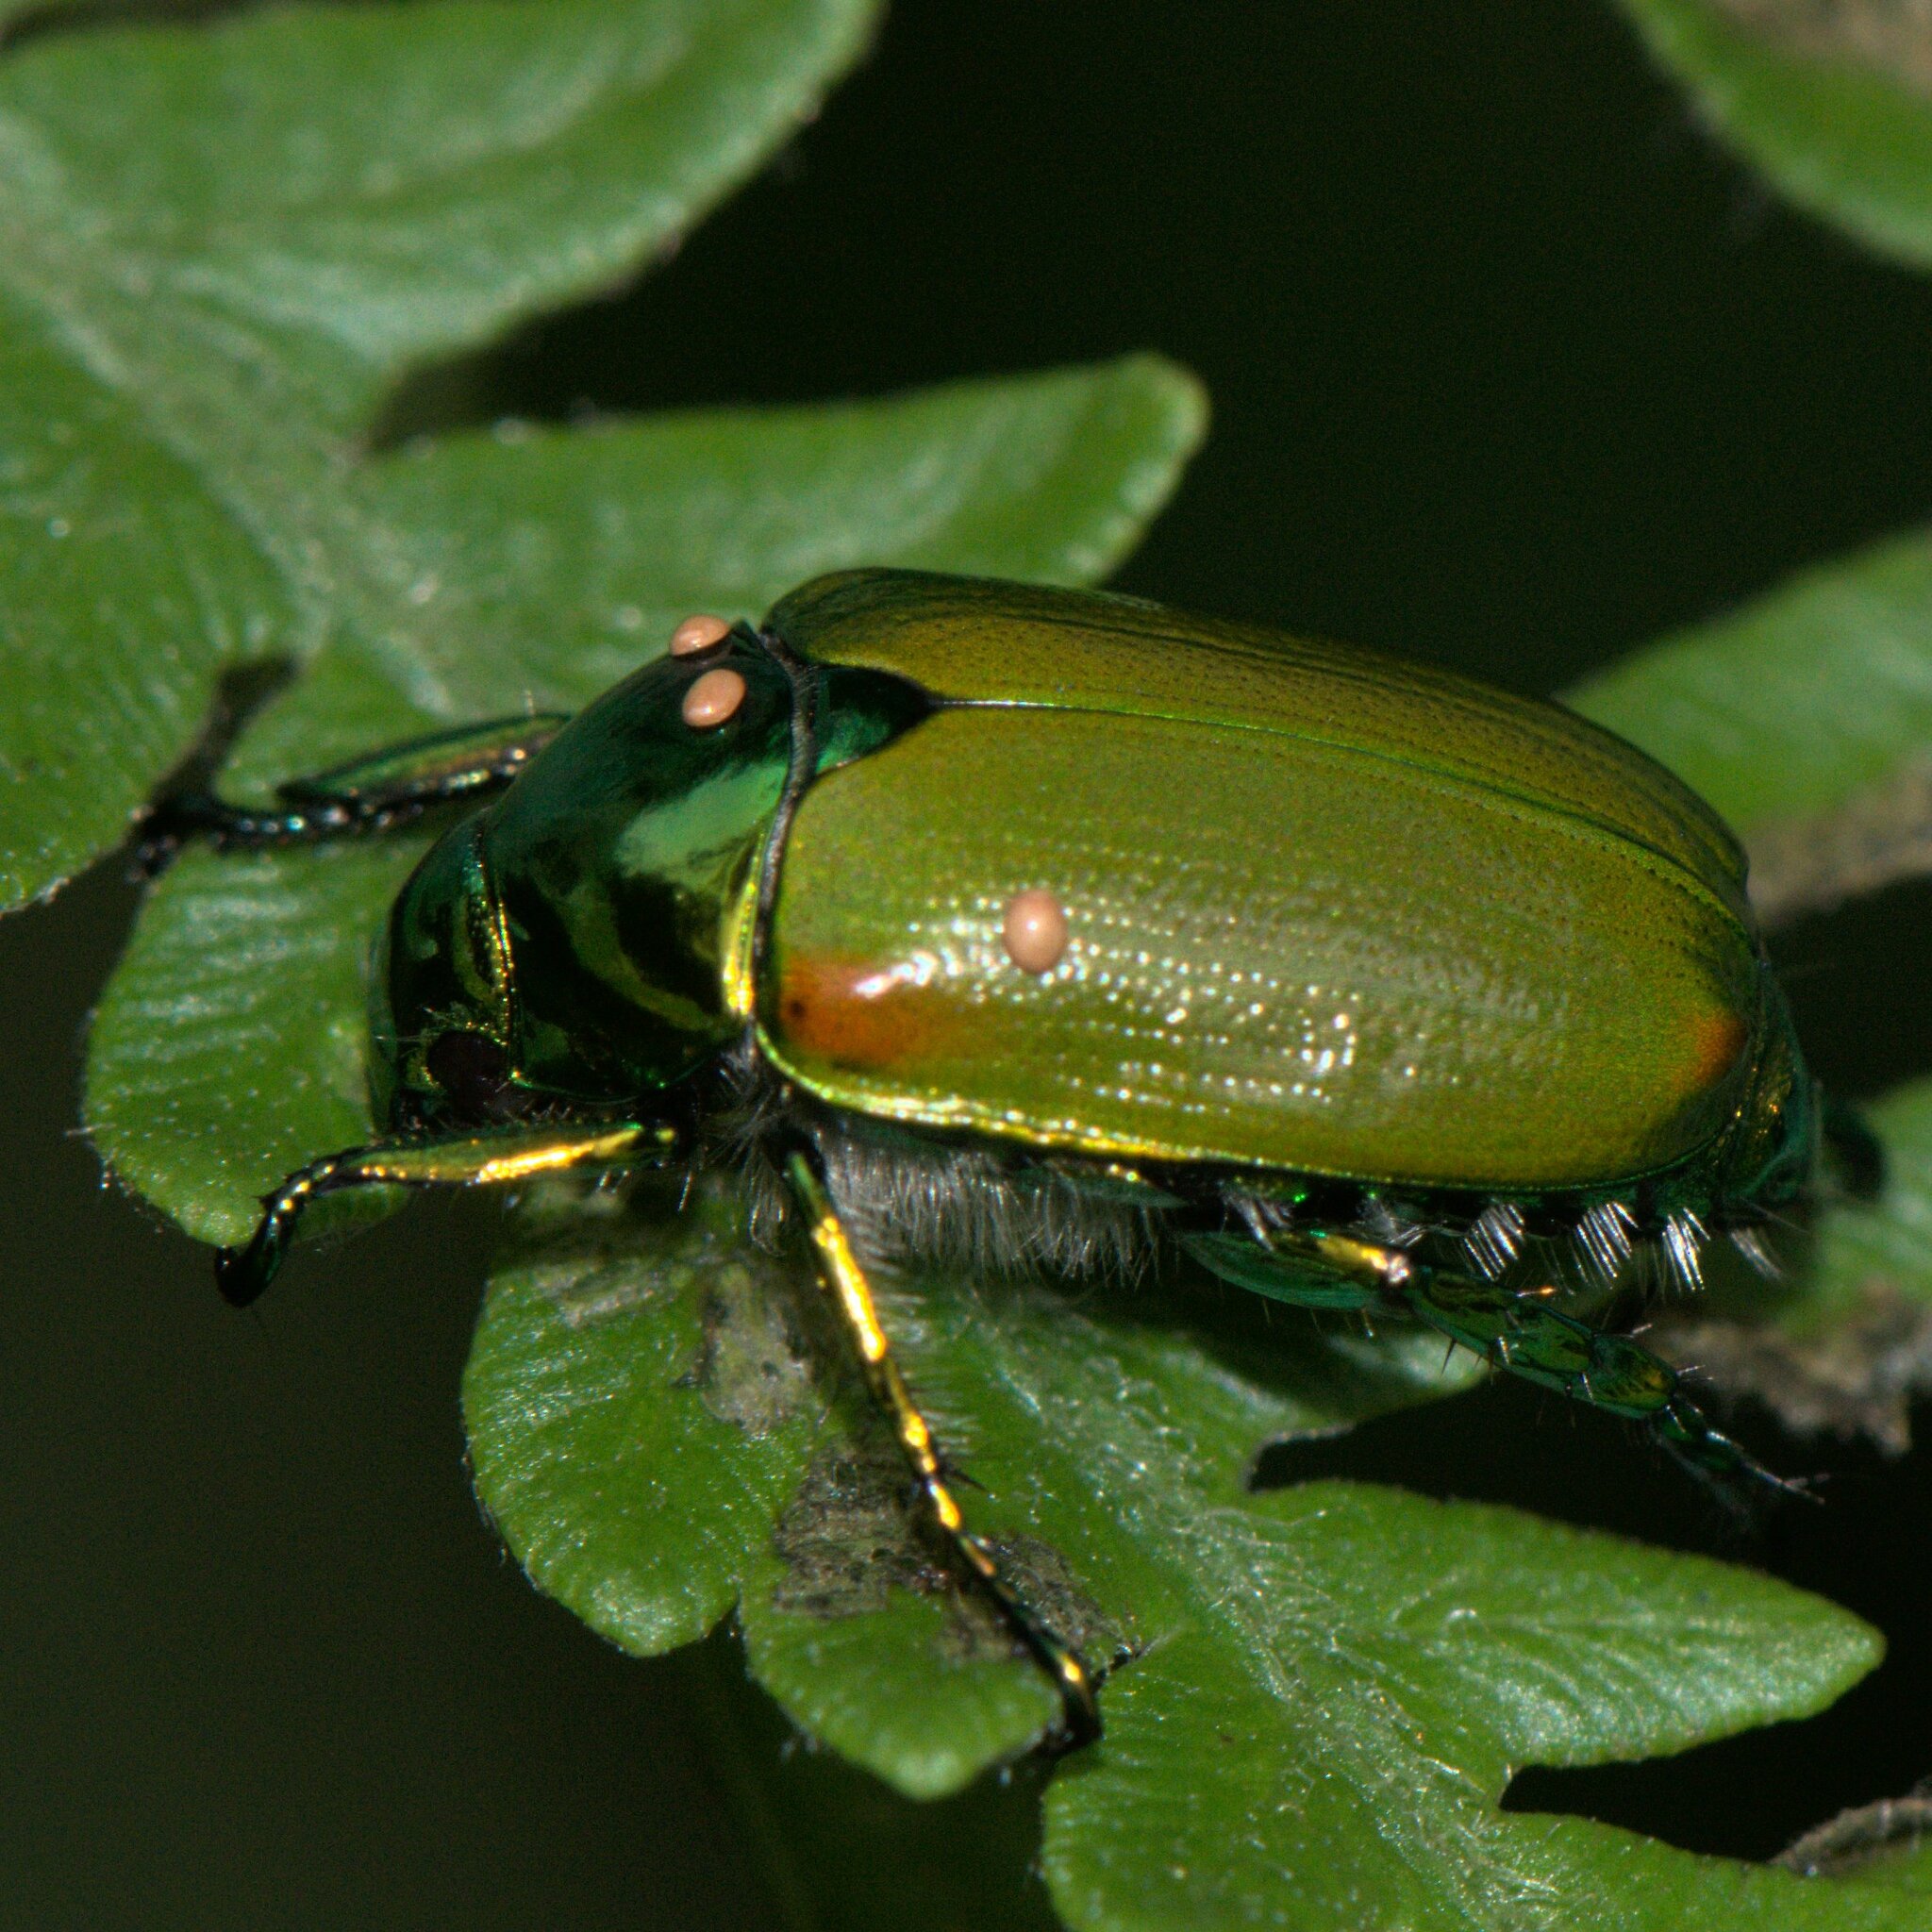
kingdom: Animalia
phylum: Arthropoda
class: Insecta
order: Coleoptera
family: Scarabaeidae
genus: Callistethus
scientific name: Callistethus stoliczkae
